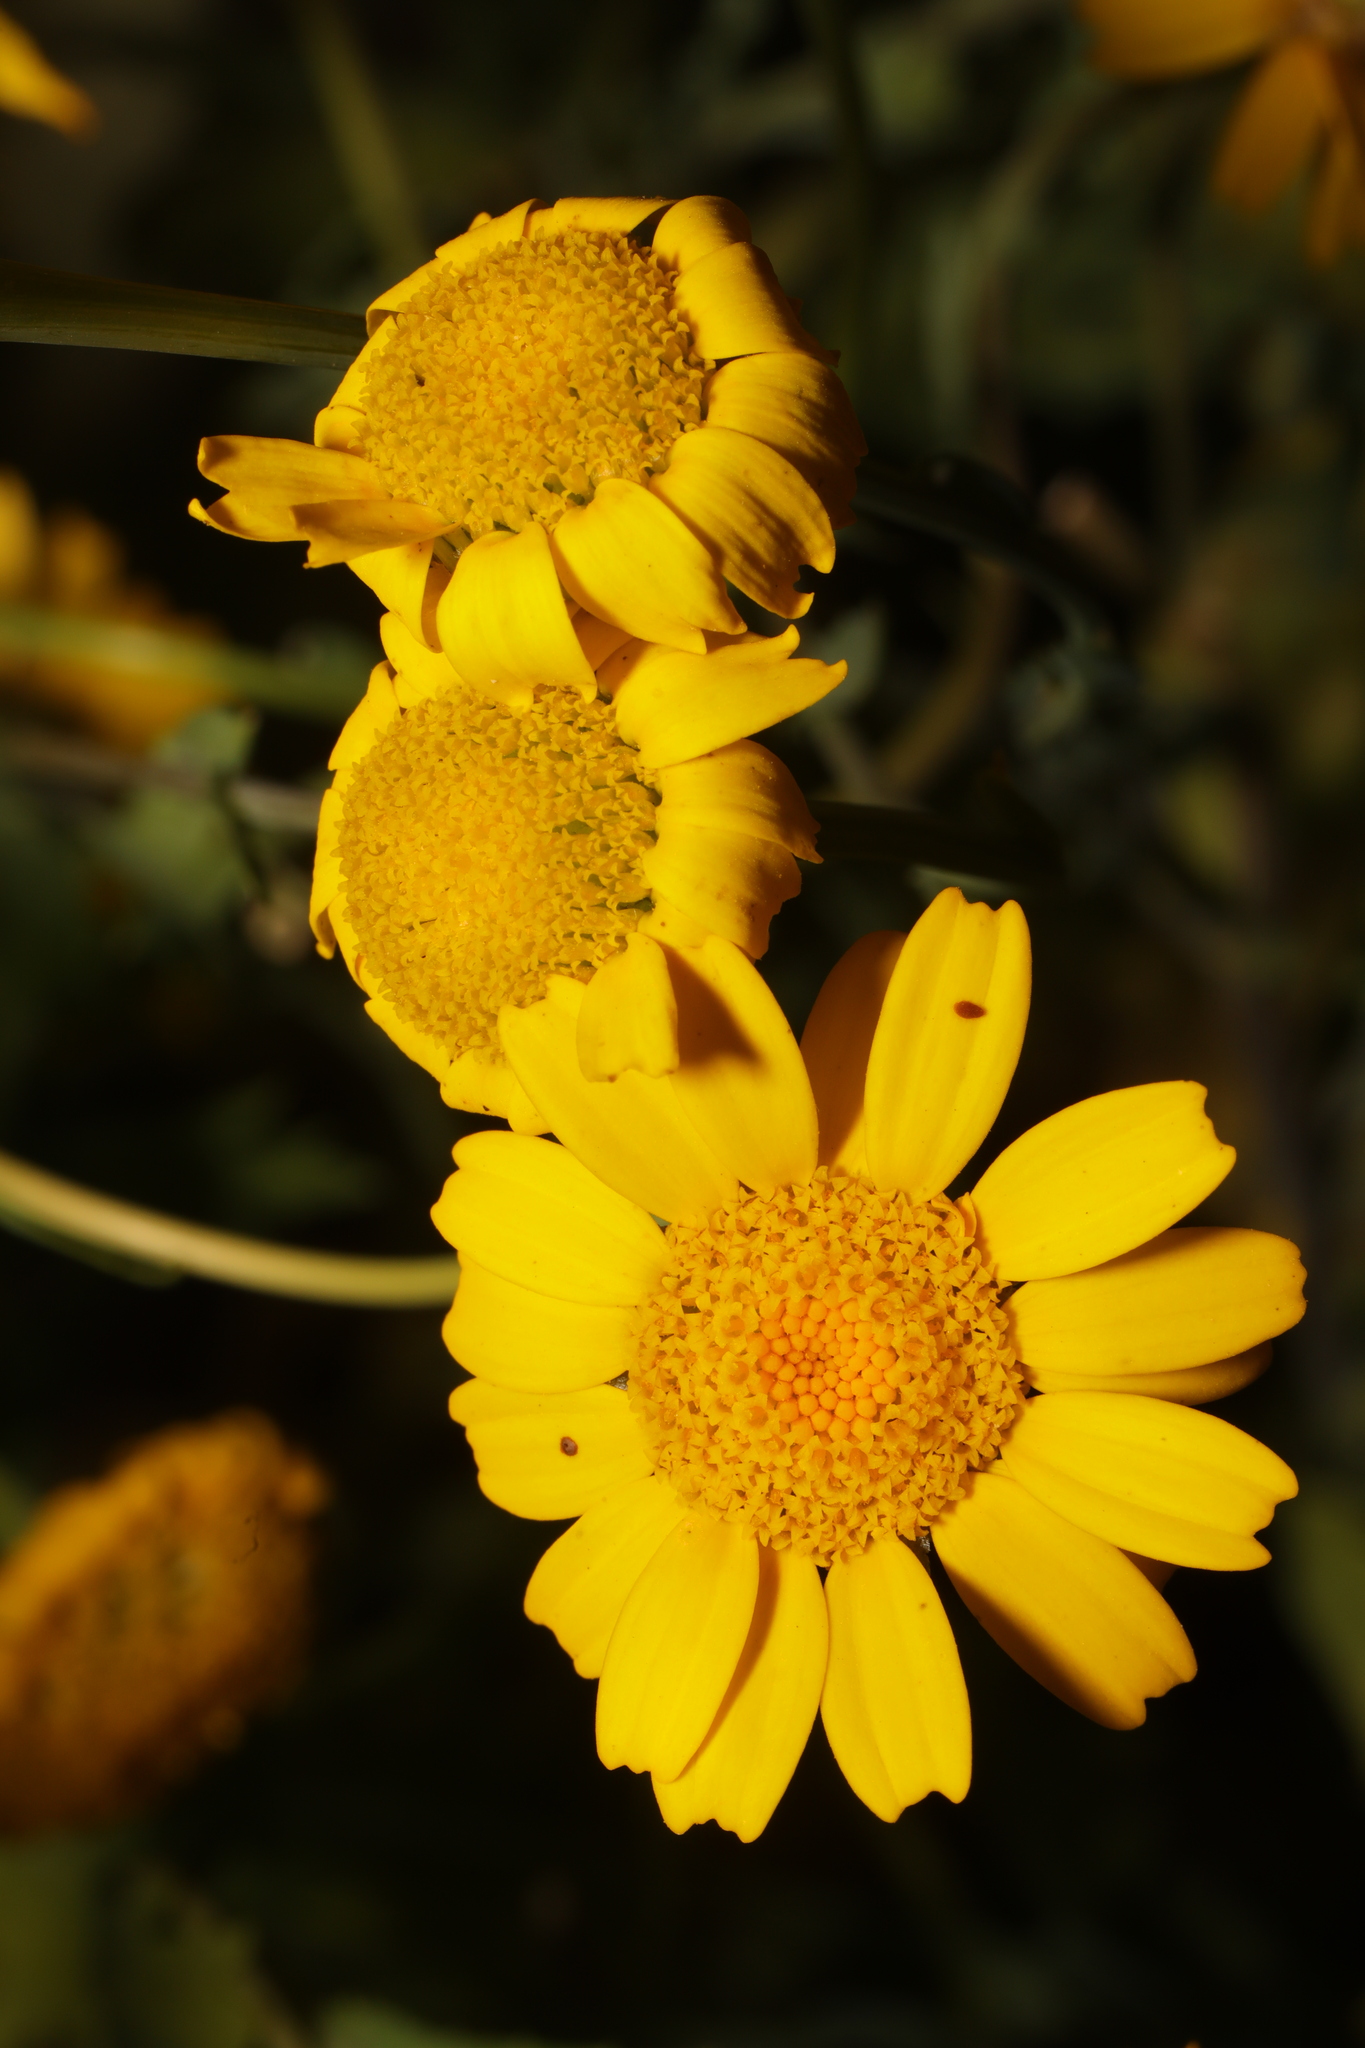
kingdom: Plantae
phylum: Tracheophyta
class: Magnoliopsida
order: Asterales
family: Asteraceae
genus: Glebionis
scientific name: Glebionis segetum
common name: Corndaisy
